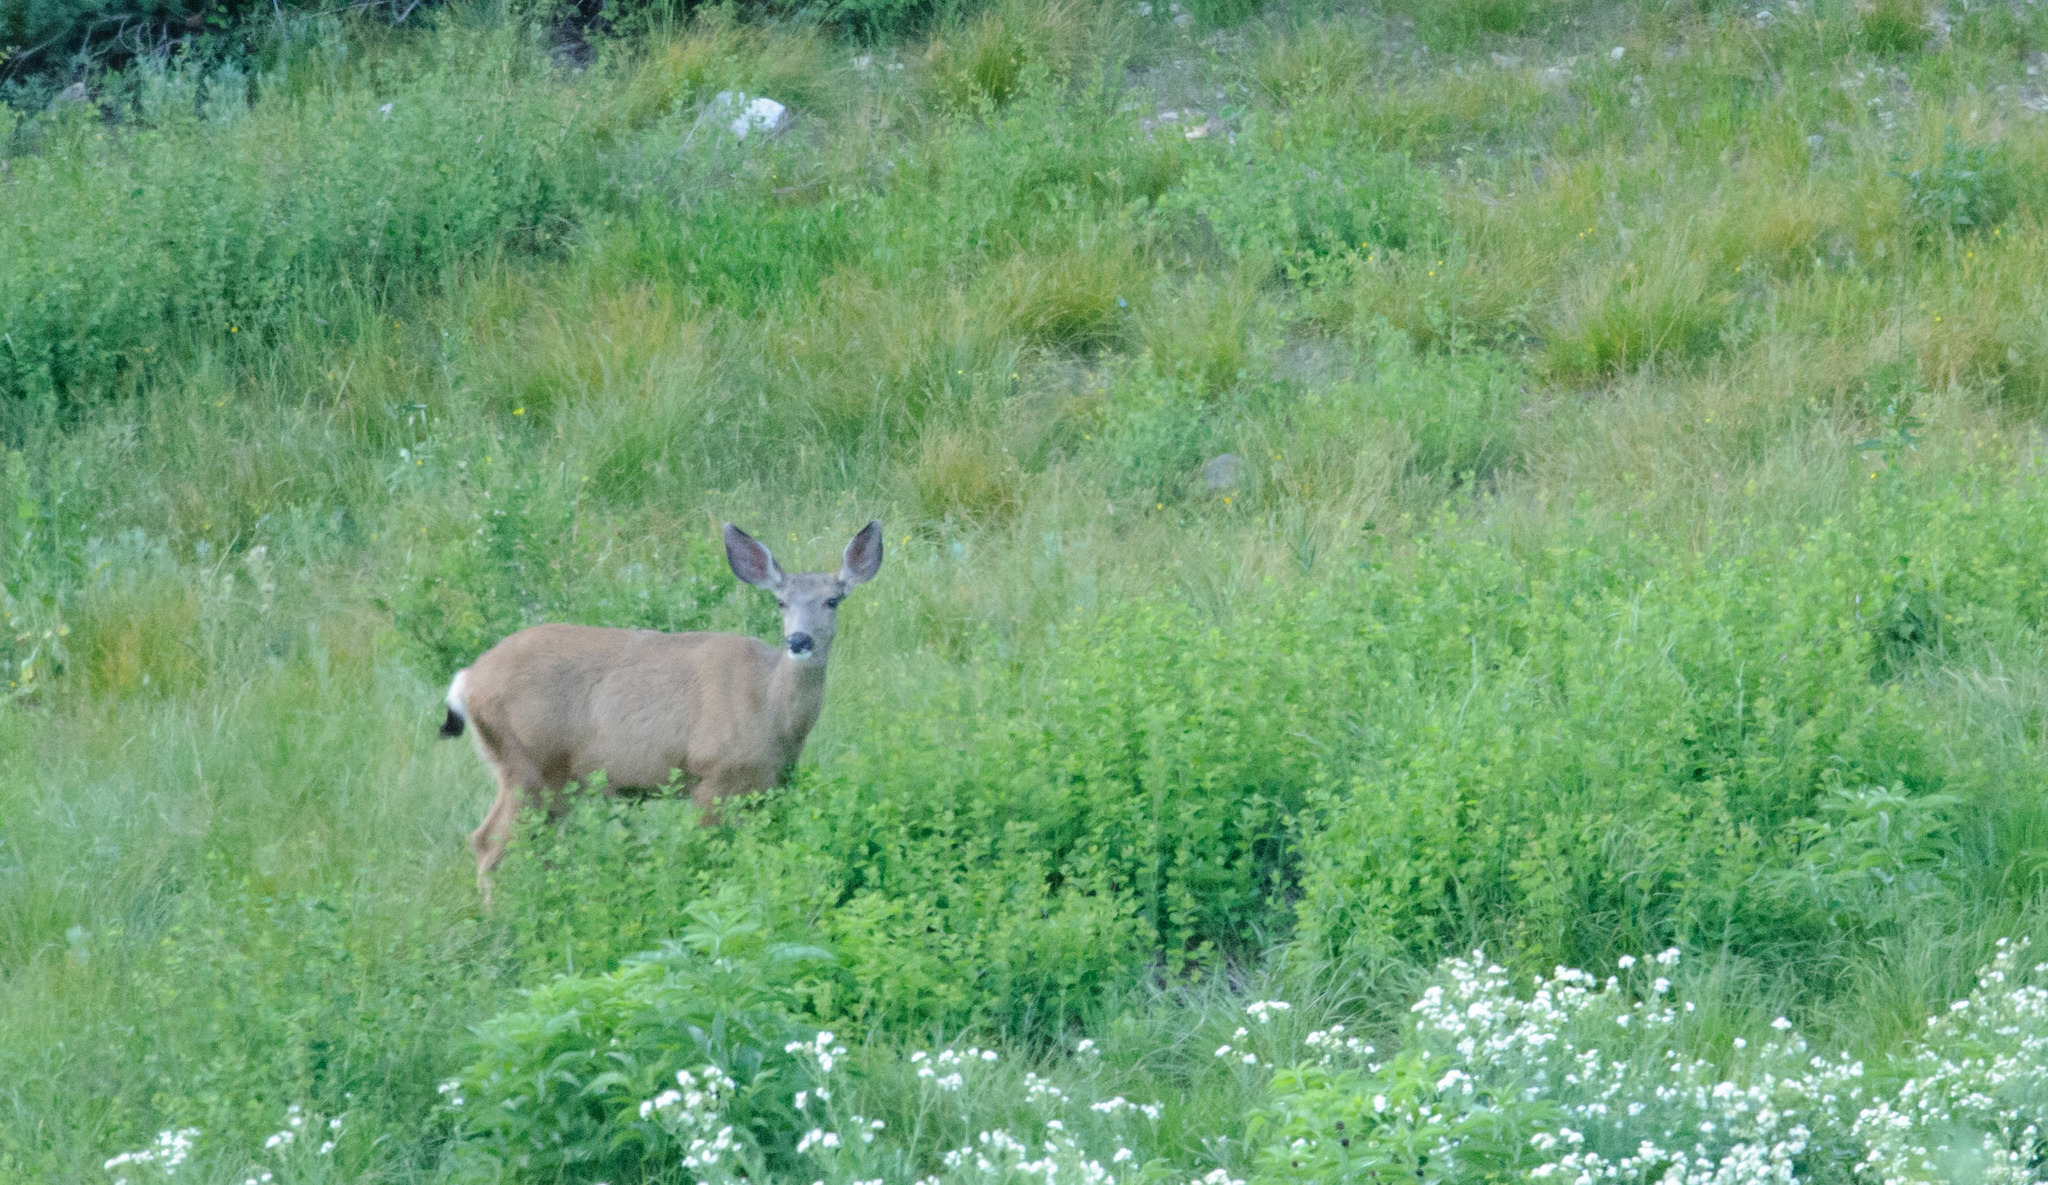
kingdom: Animalia
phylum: Chordata
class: Mammalia
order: Artiodactyla
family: Cervidae
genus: Odocoileus
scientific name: Odocoileus hemionus
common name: Mule deer
